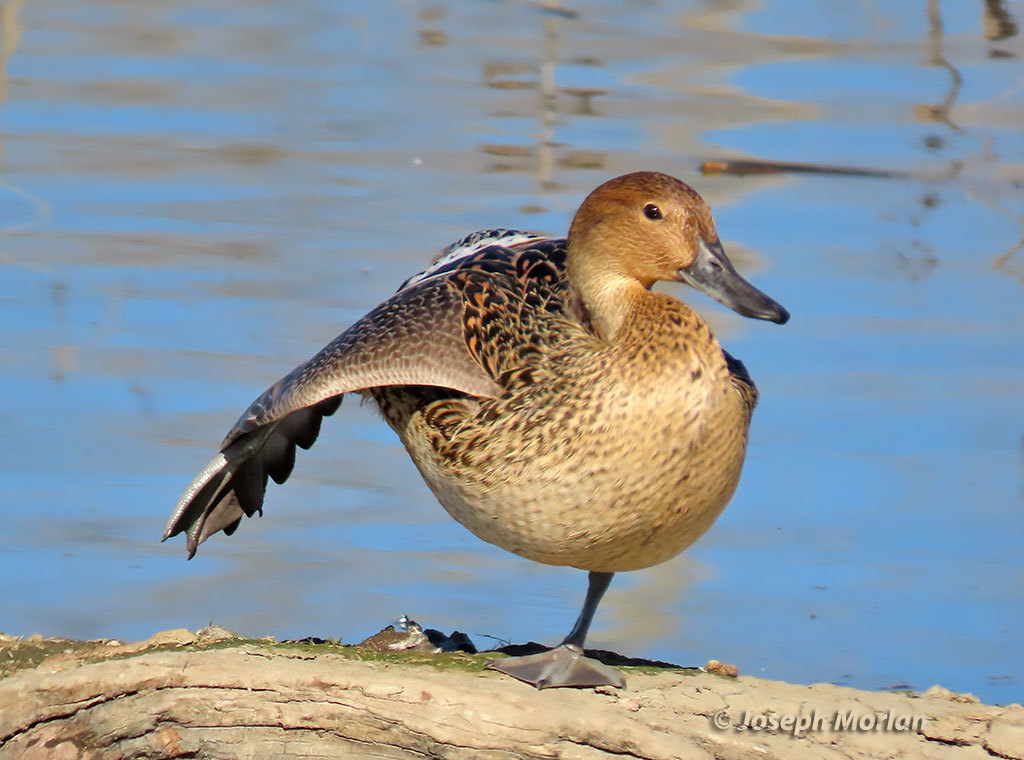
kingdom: Animalia
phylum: Chordata
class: Aves
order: Anseriformes
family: Anatidae
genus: Anas
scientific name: Anas acuta
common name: Northern pintail
